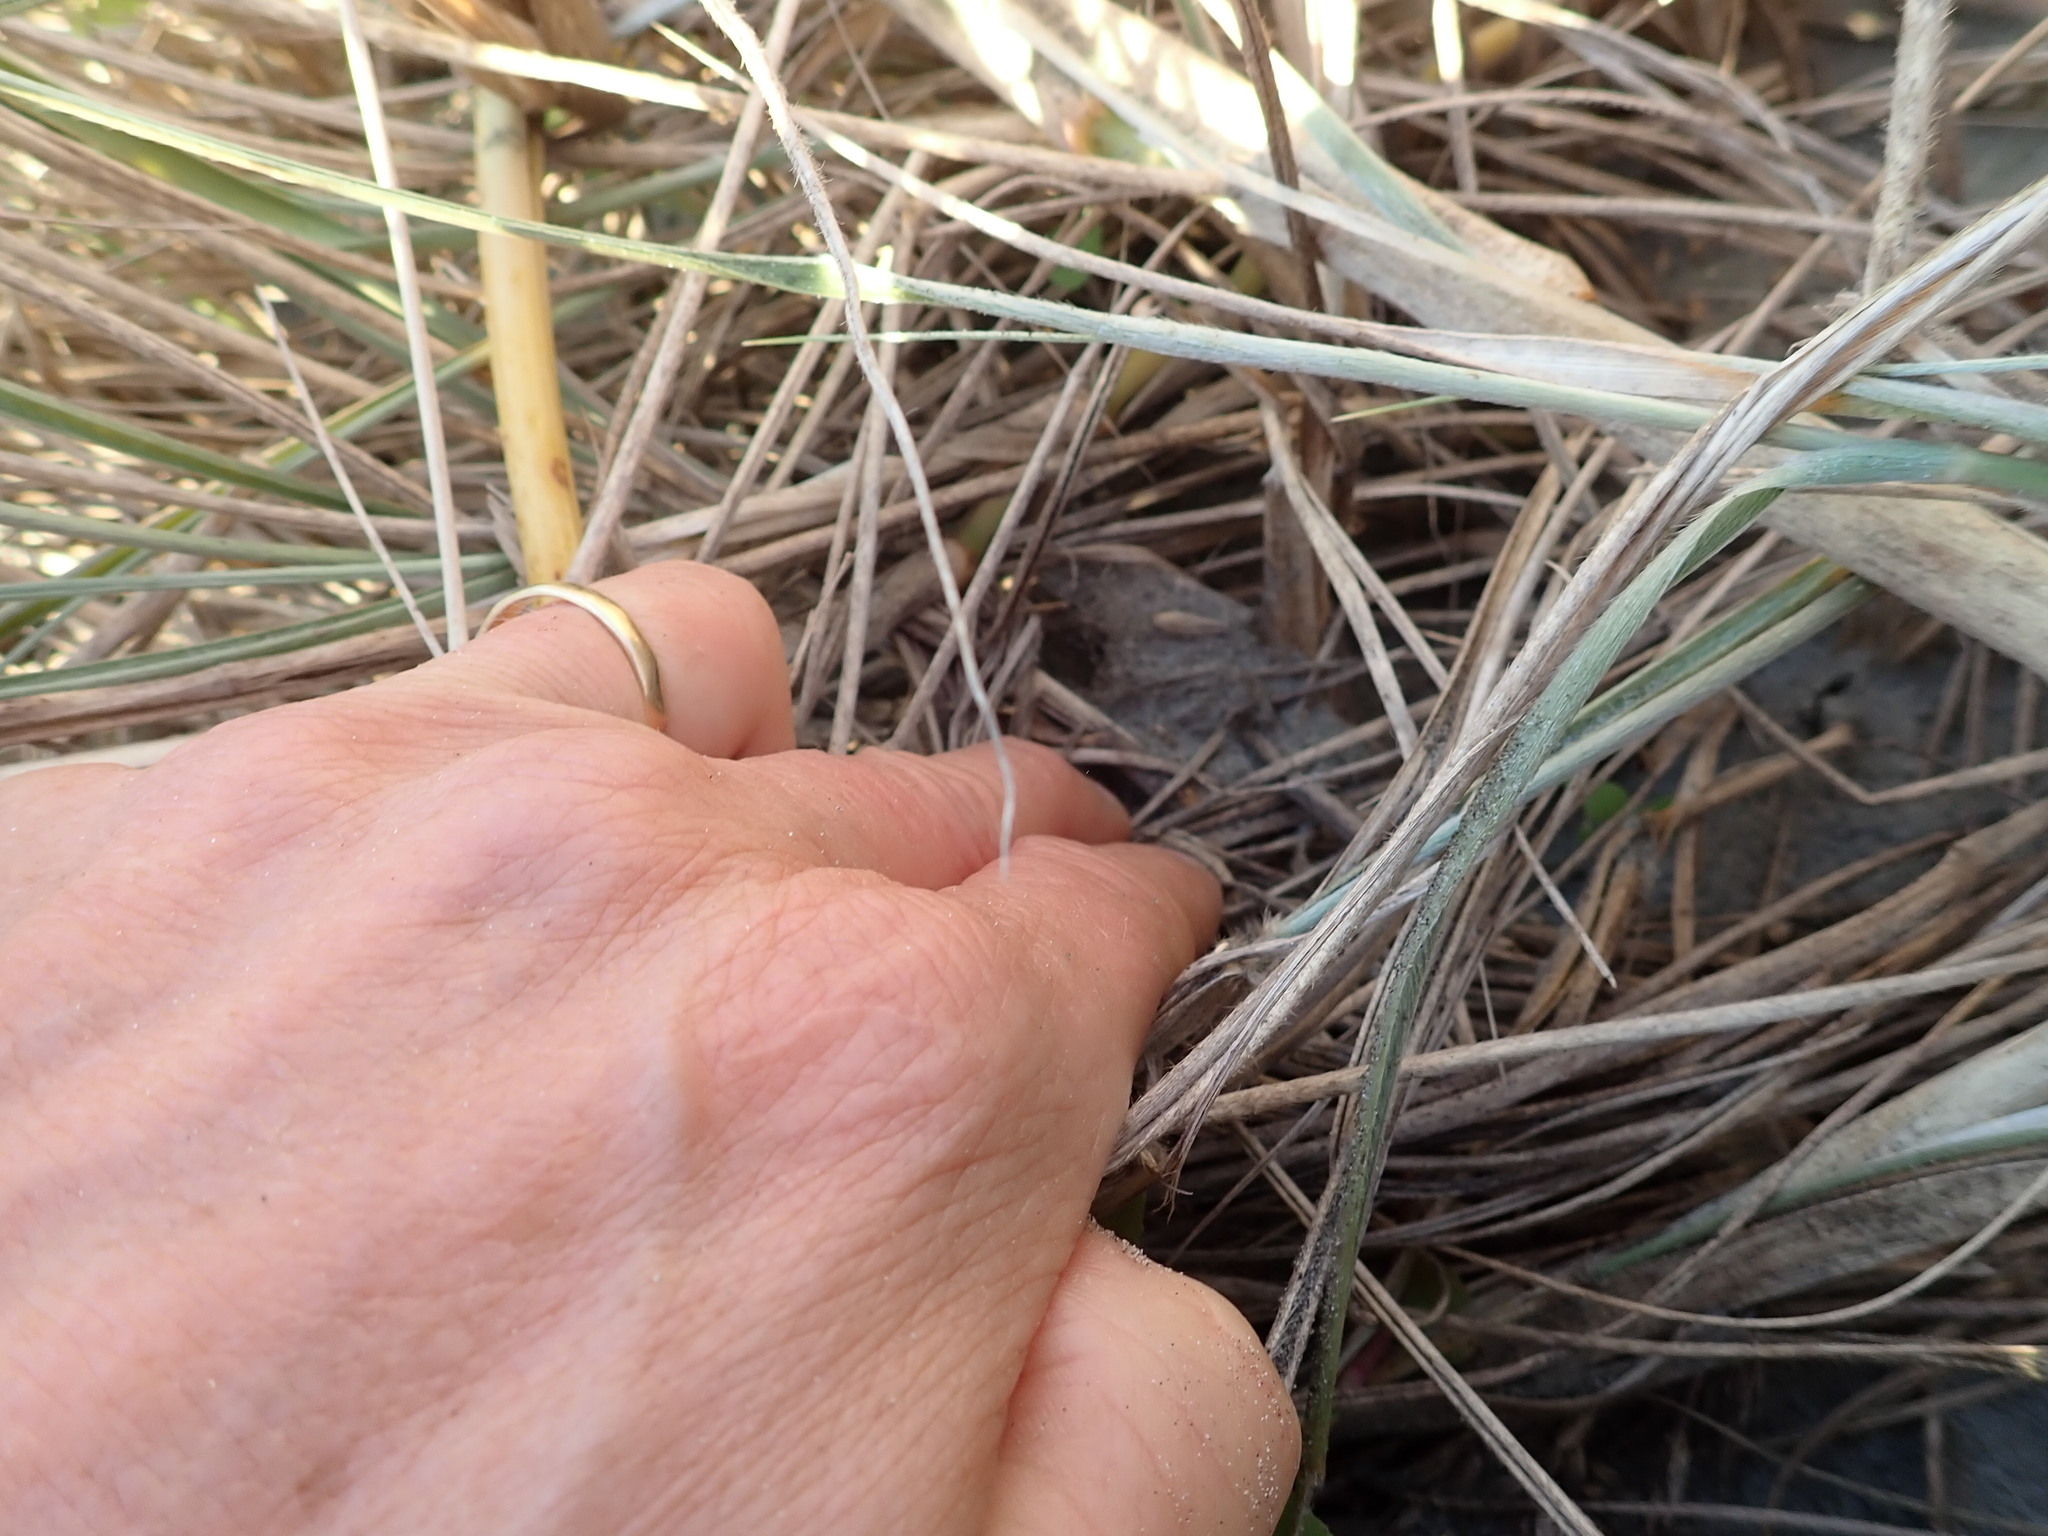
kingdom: Animalia
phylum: Arthropoda
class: Arachnida
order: Araneae
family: Theridiidae
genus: Latrodectus
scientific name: Latrodectus katipo
